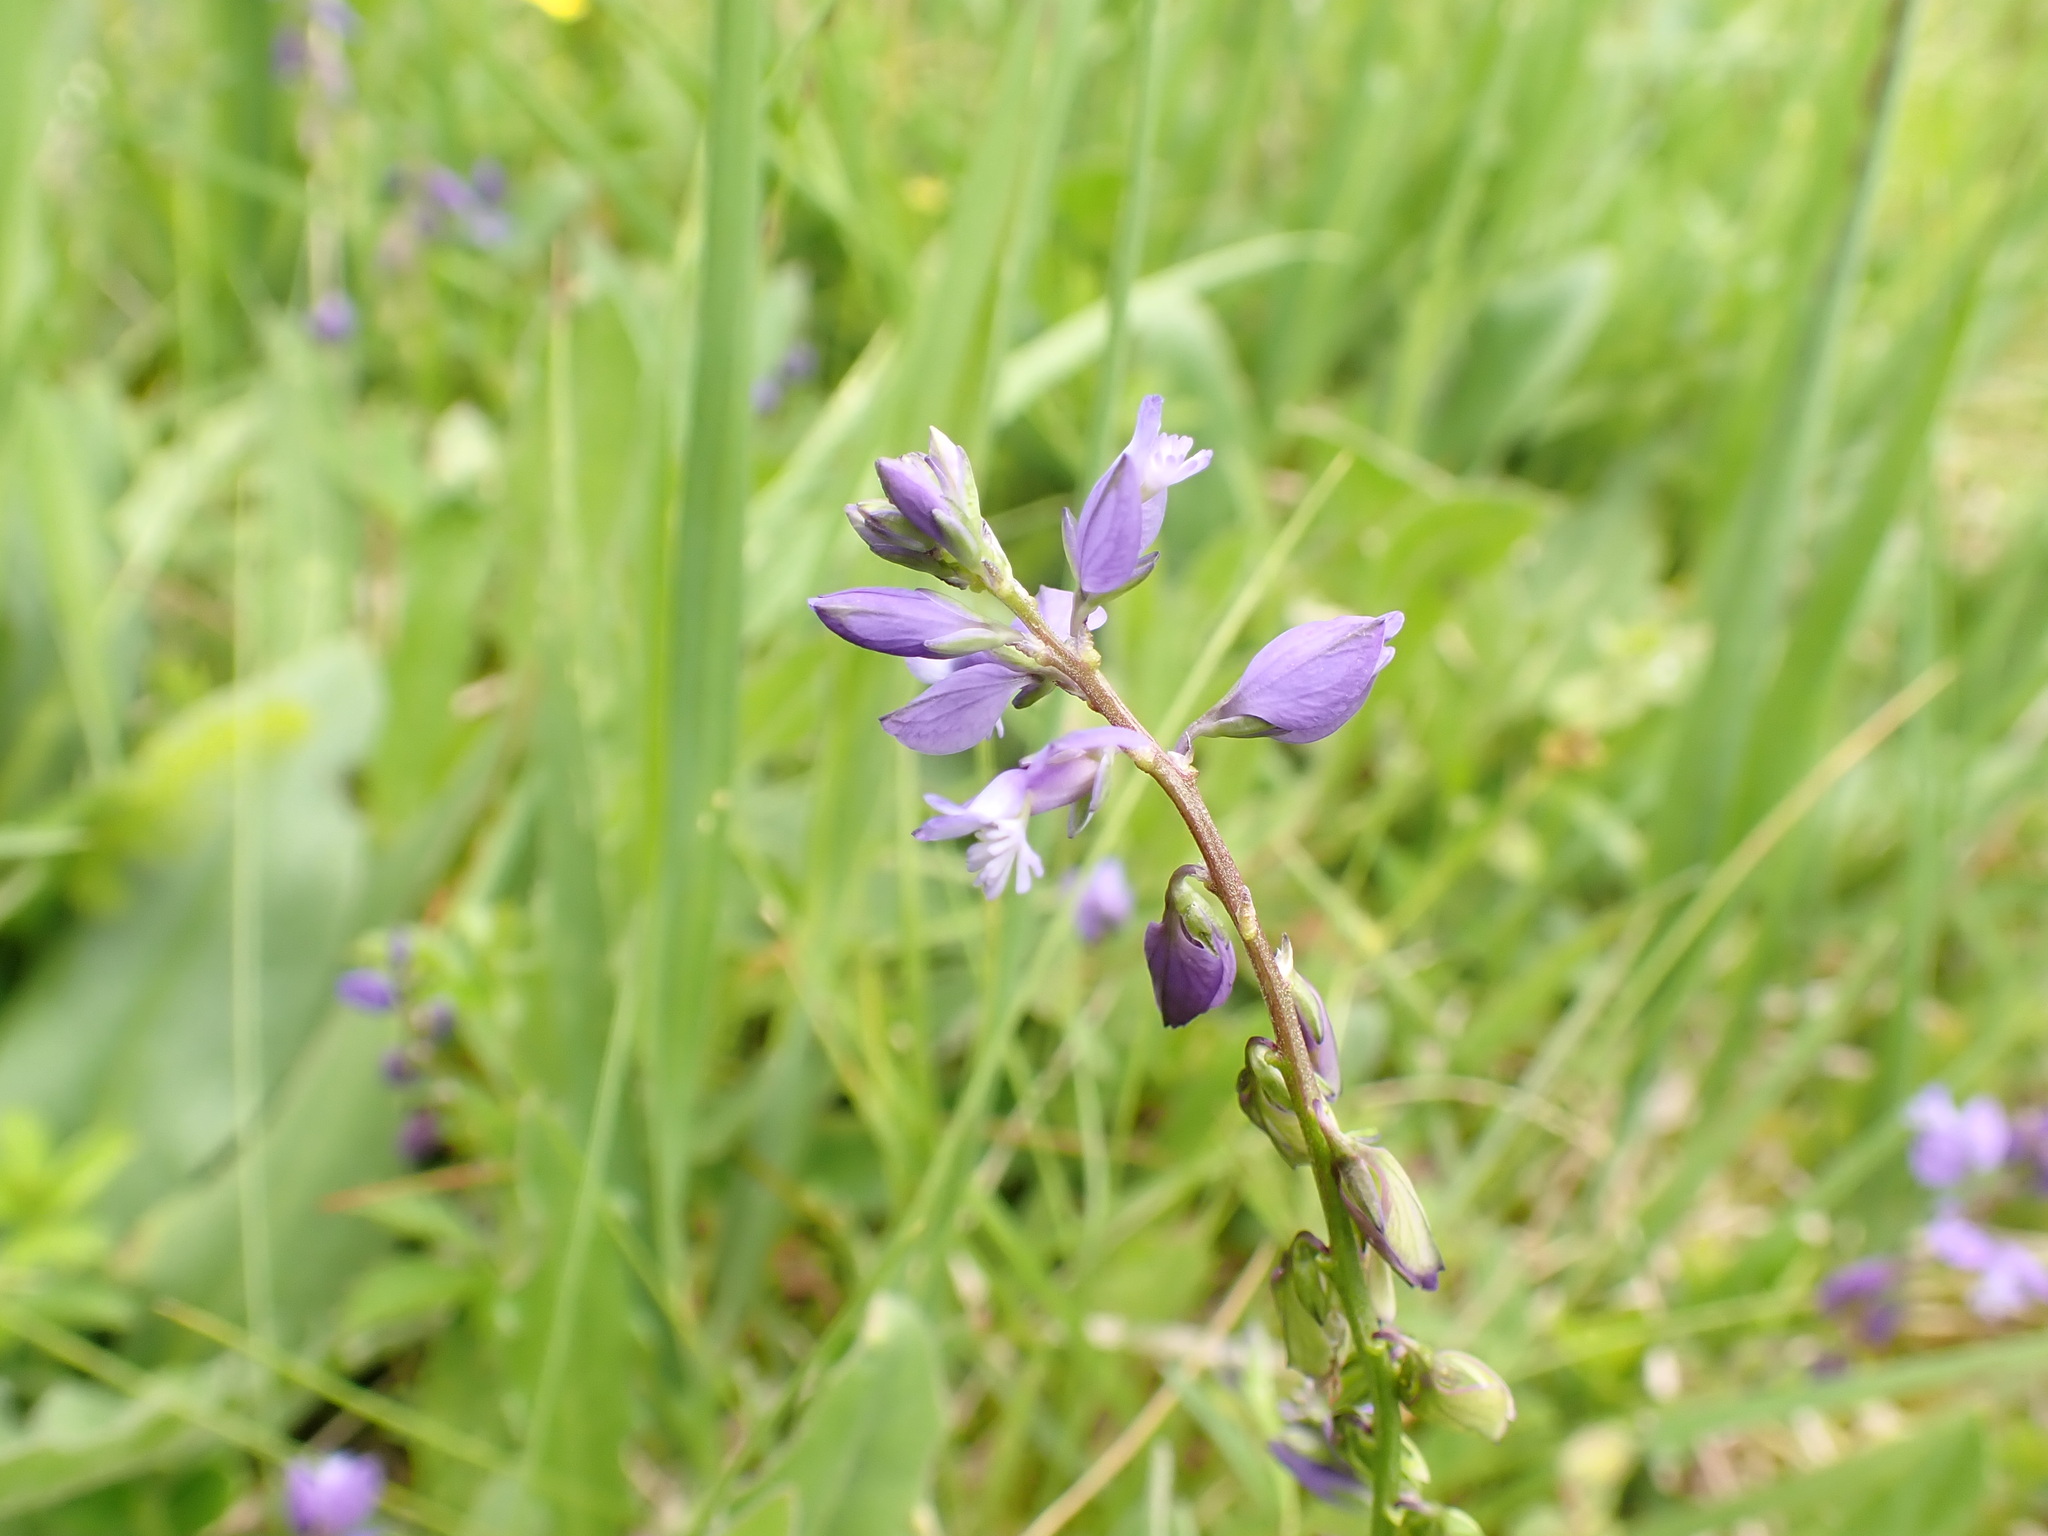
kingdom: Plantae
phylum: Tracheophyta
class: Magnoliopsida
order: Fabales
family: Polygalaceae
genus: Polygala
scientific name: Polygala vulgaris
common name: Common milkwort
